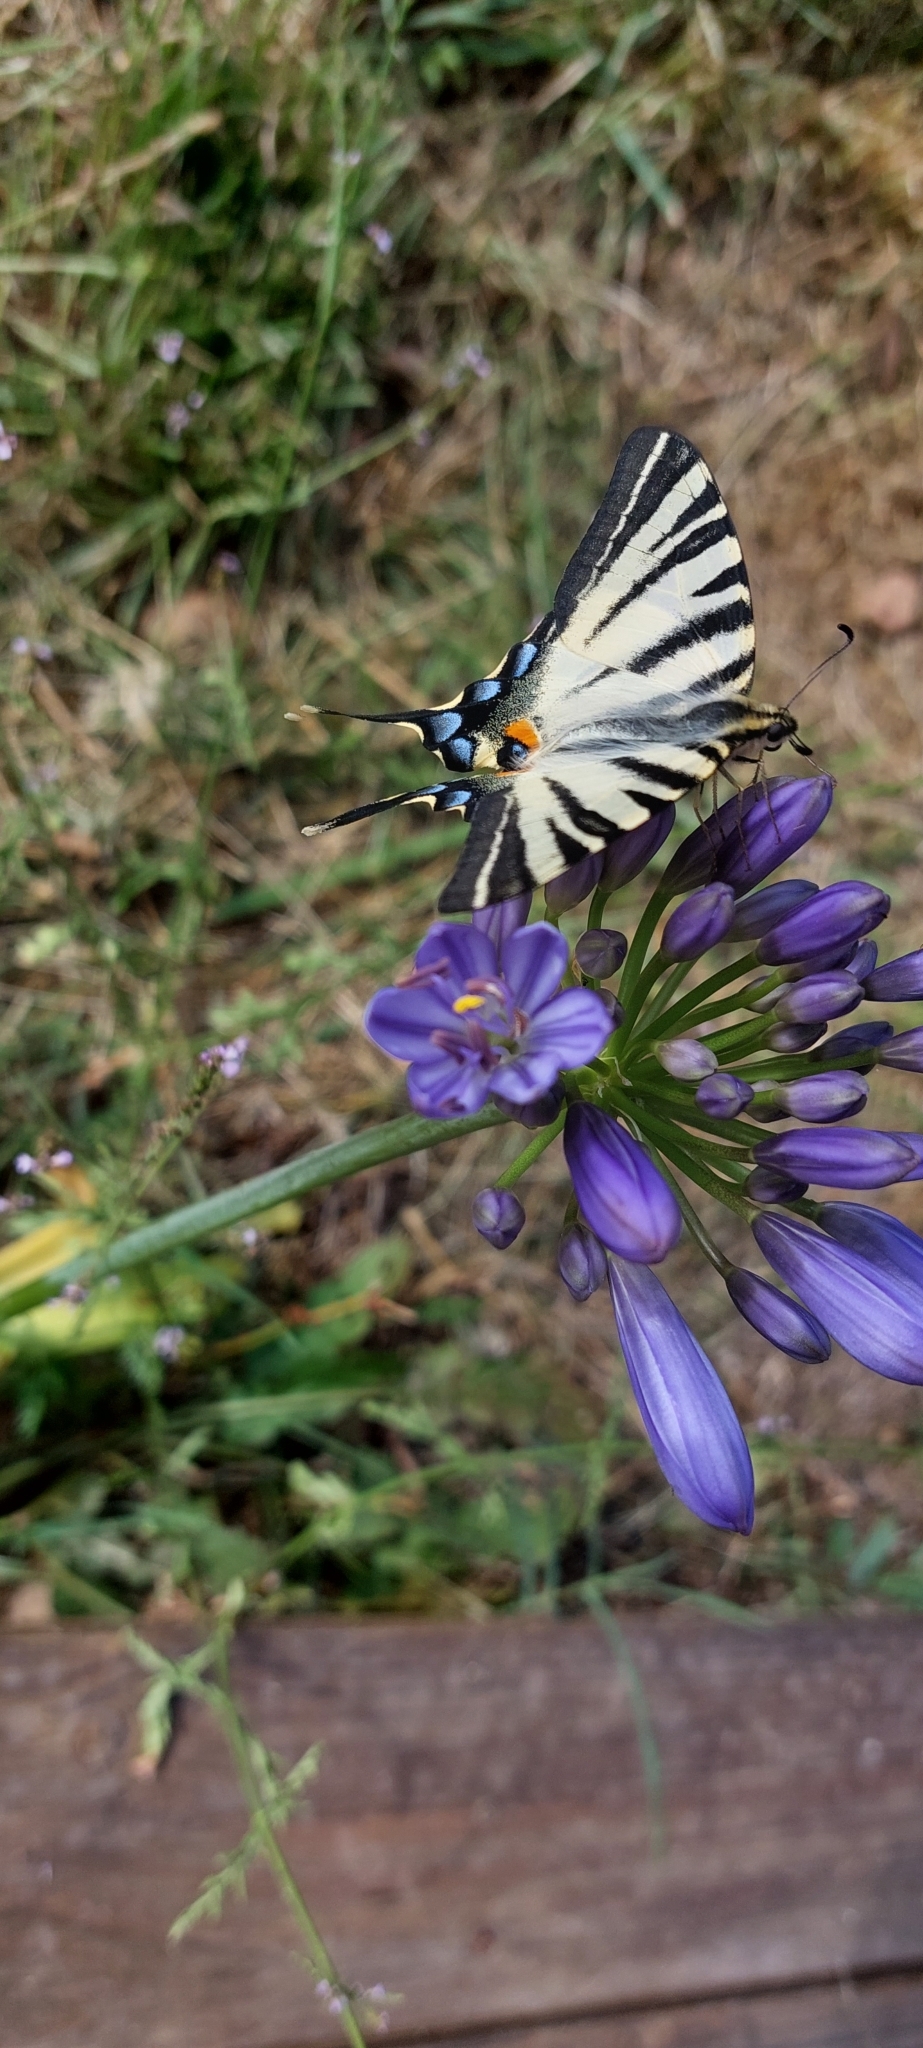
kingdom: Animalia
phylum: Arthropoda
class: Insecta
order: Lepidoptera
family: Papilionidae
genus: Iphiclides
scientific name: Iphiclides podalirius
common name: Scarce swallowtail
